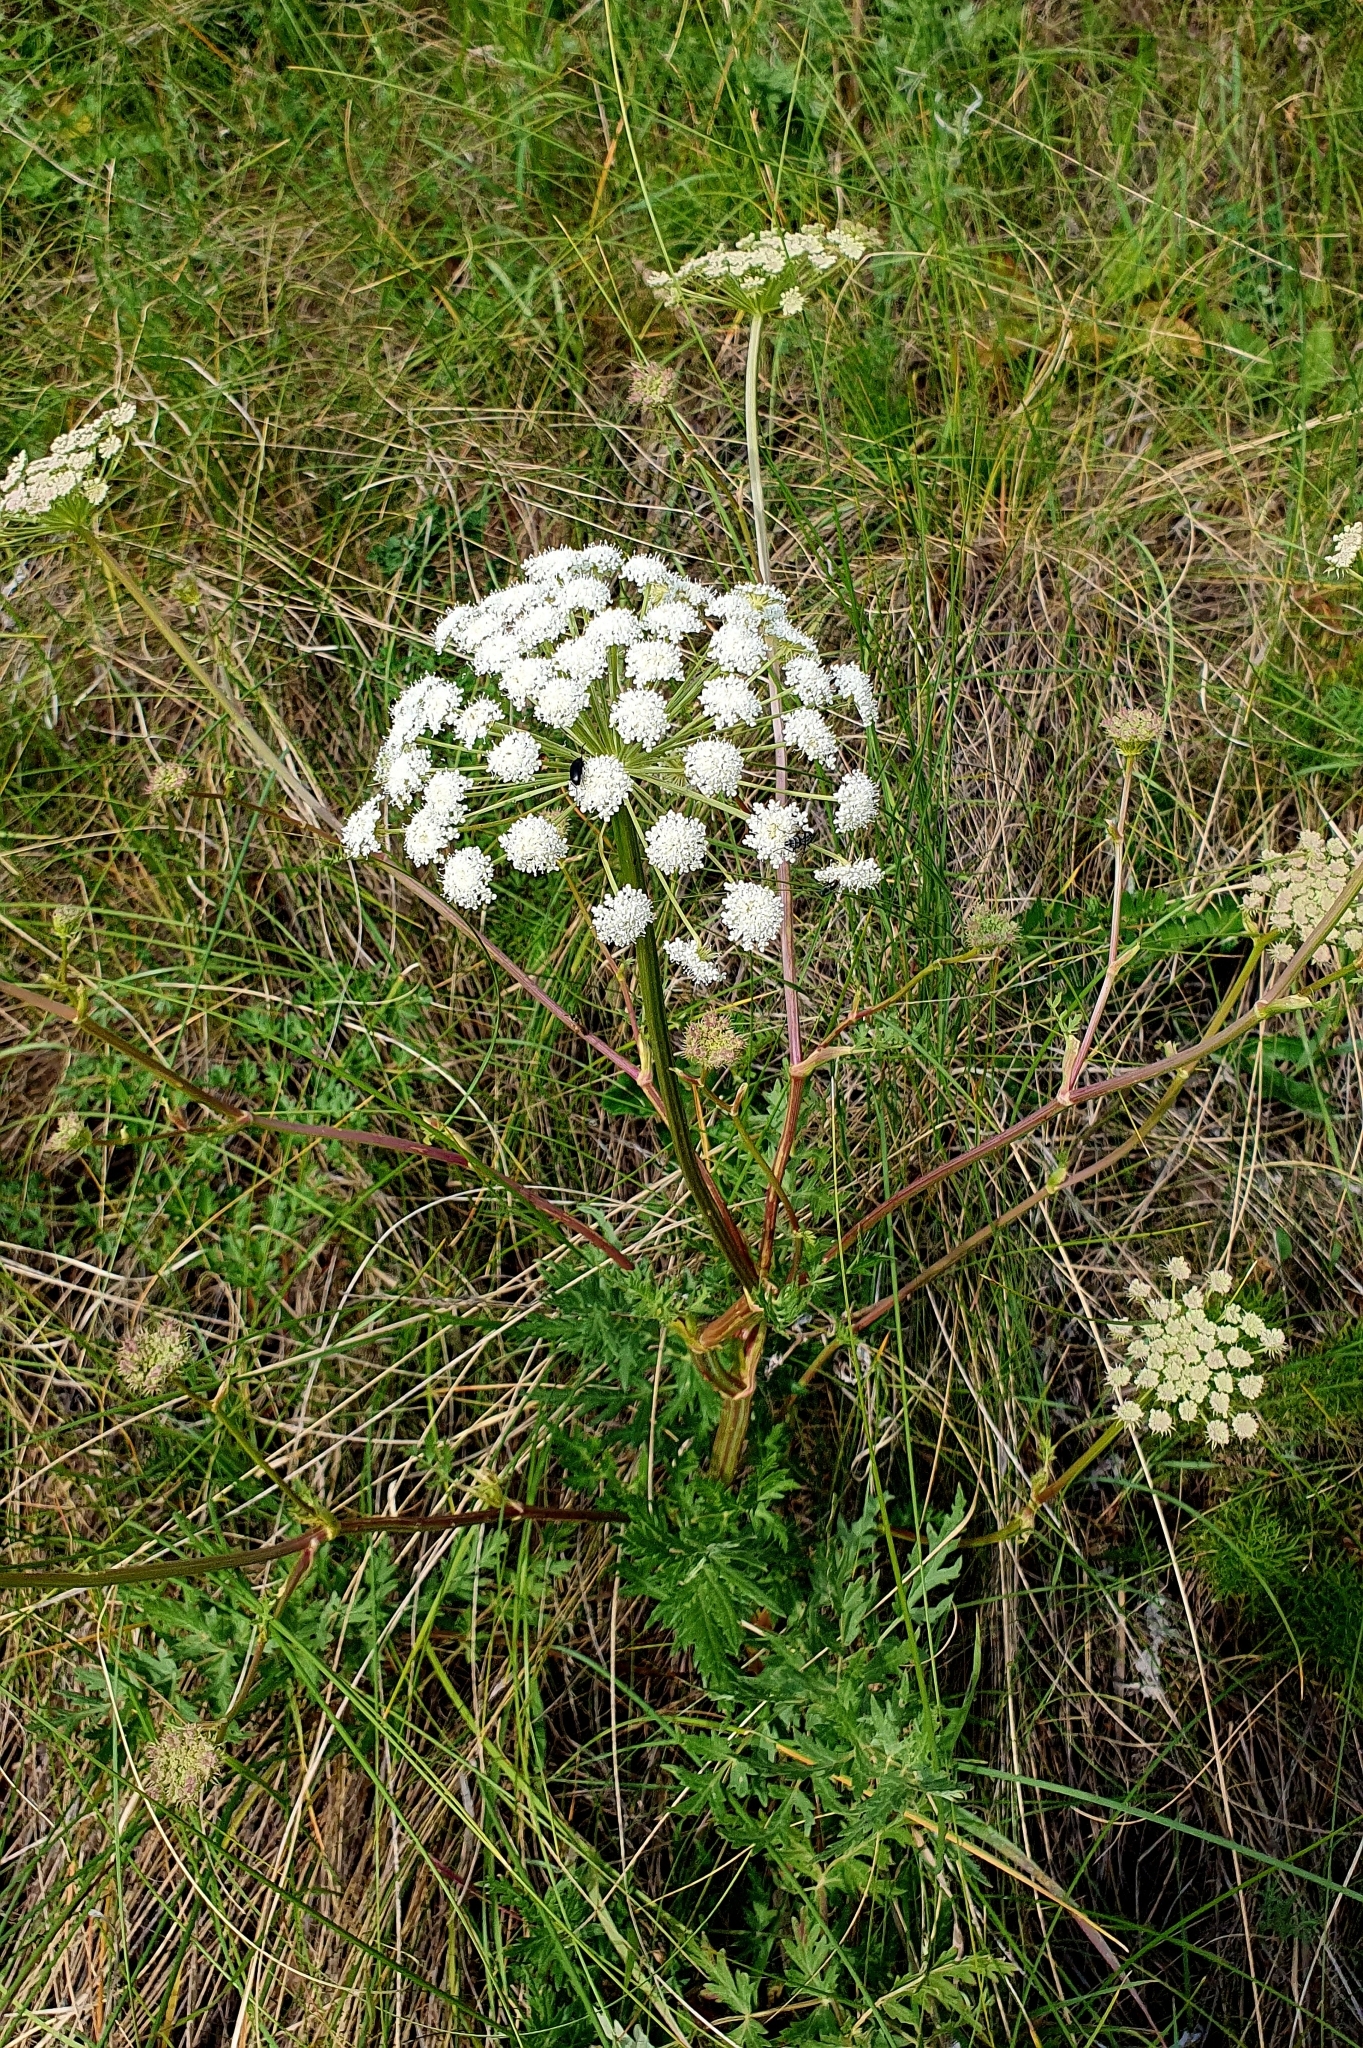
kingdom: Plantae
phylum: Tracheophyta
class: Magnoliopsida
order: Apiales
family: Apiaceae
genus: Seseli
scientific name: Seseli libanotis
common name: Mooncarrot
